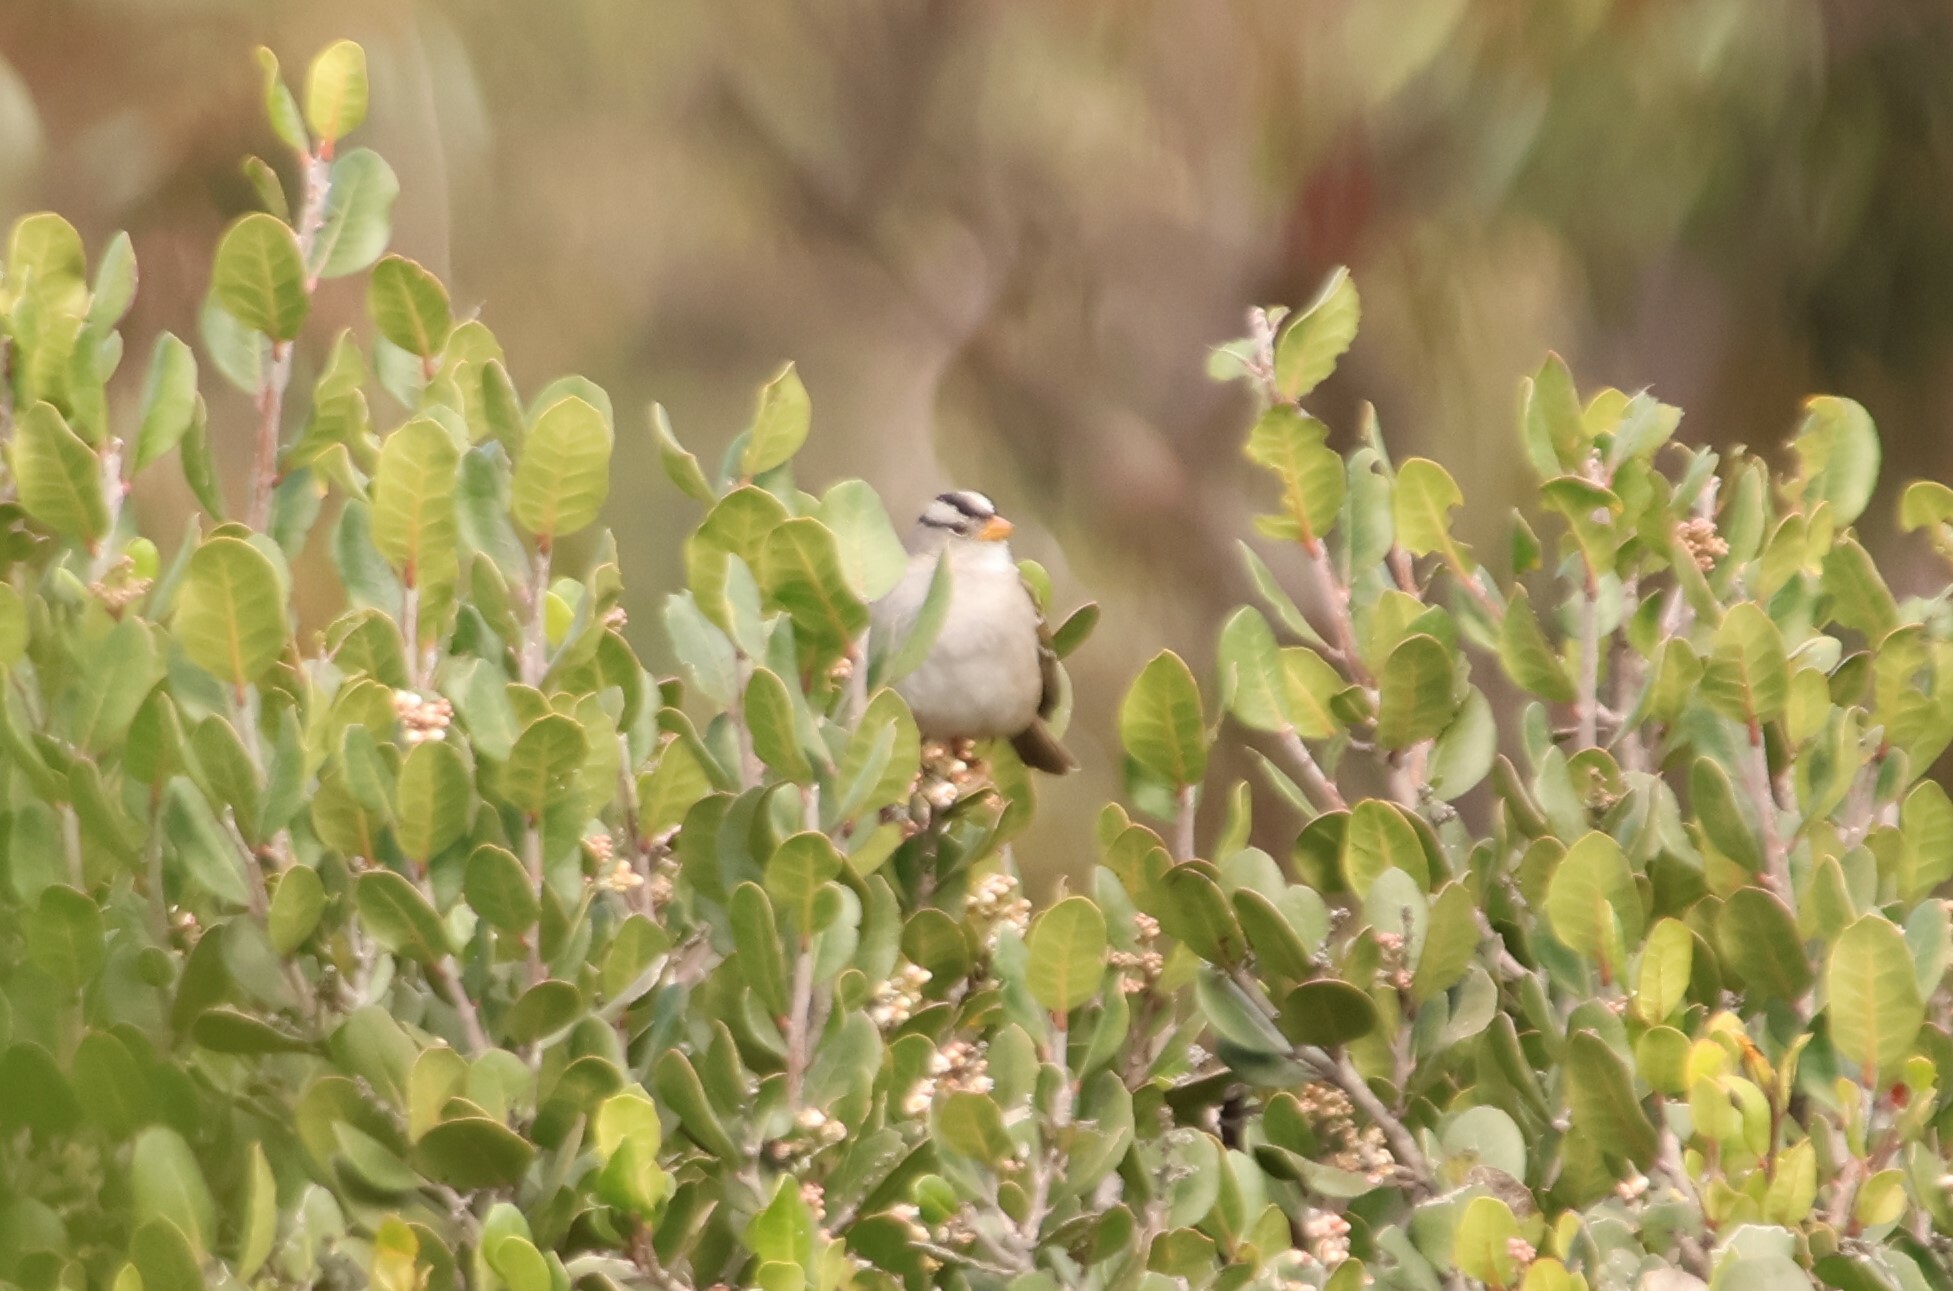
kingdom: Animalia
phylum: Chordata
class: Aves
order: Passeriformes
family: Passerellidae
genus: Zonotrichia
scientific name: Zonotrichia leucophrys
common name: White-crowned sparrow
